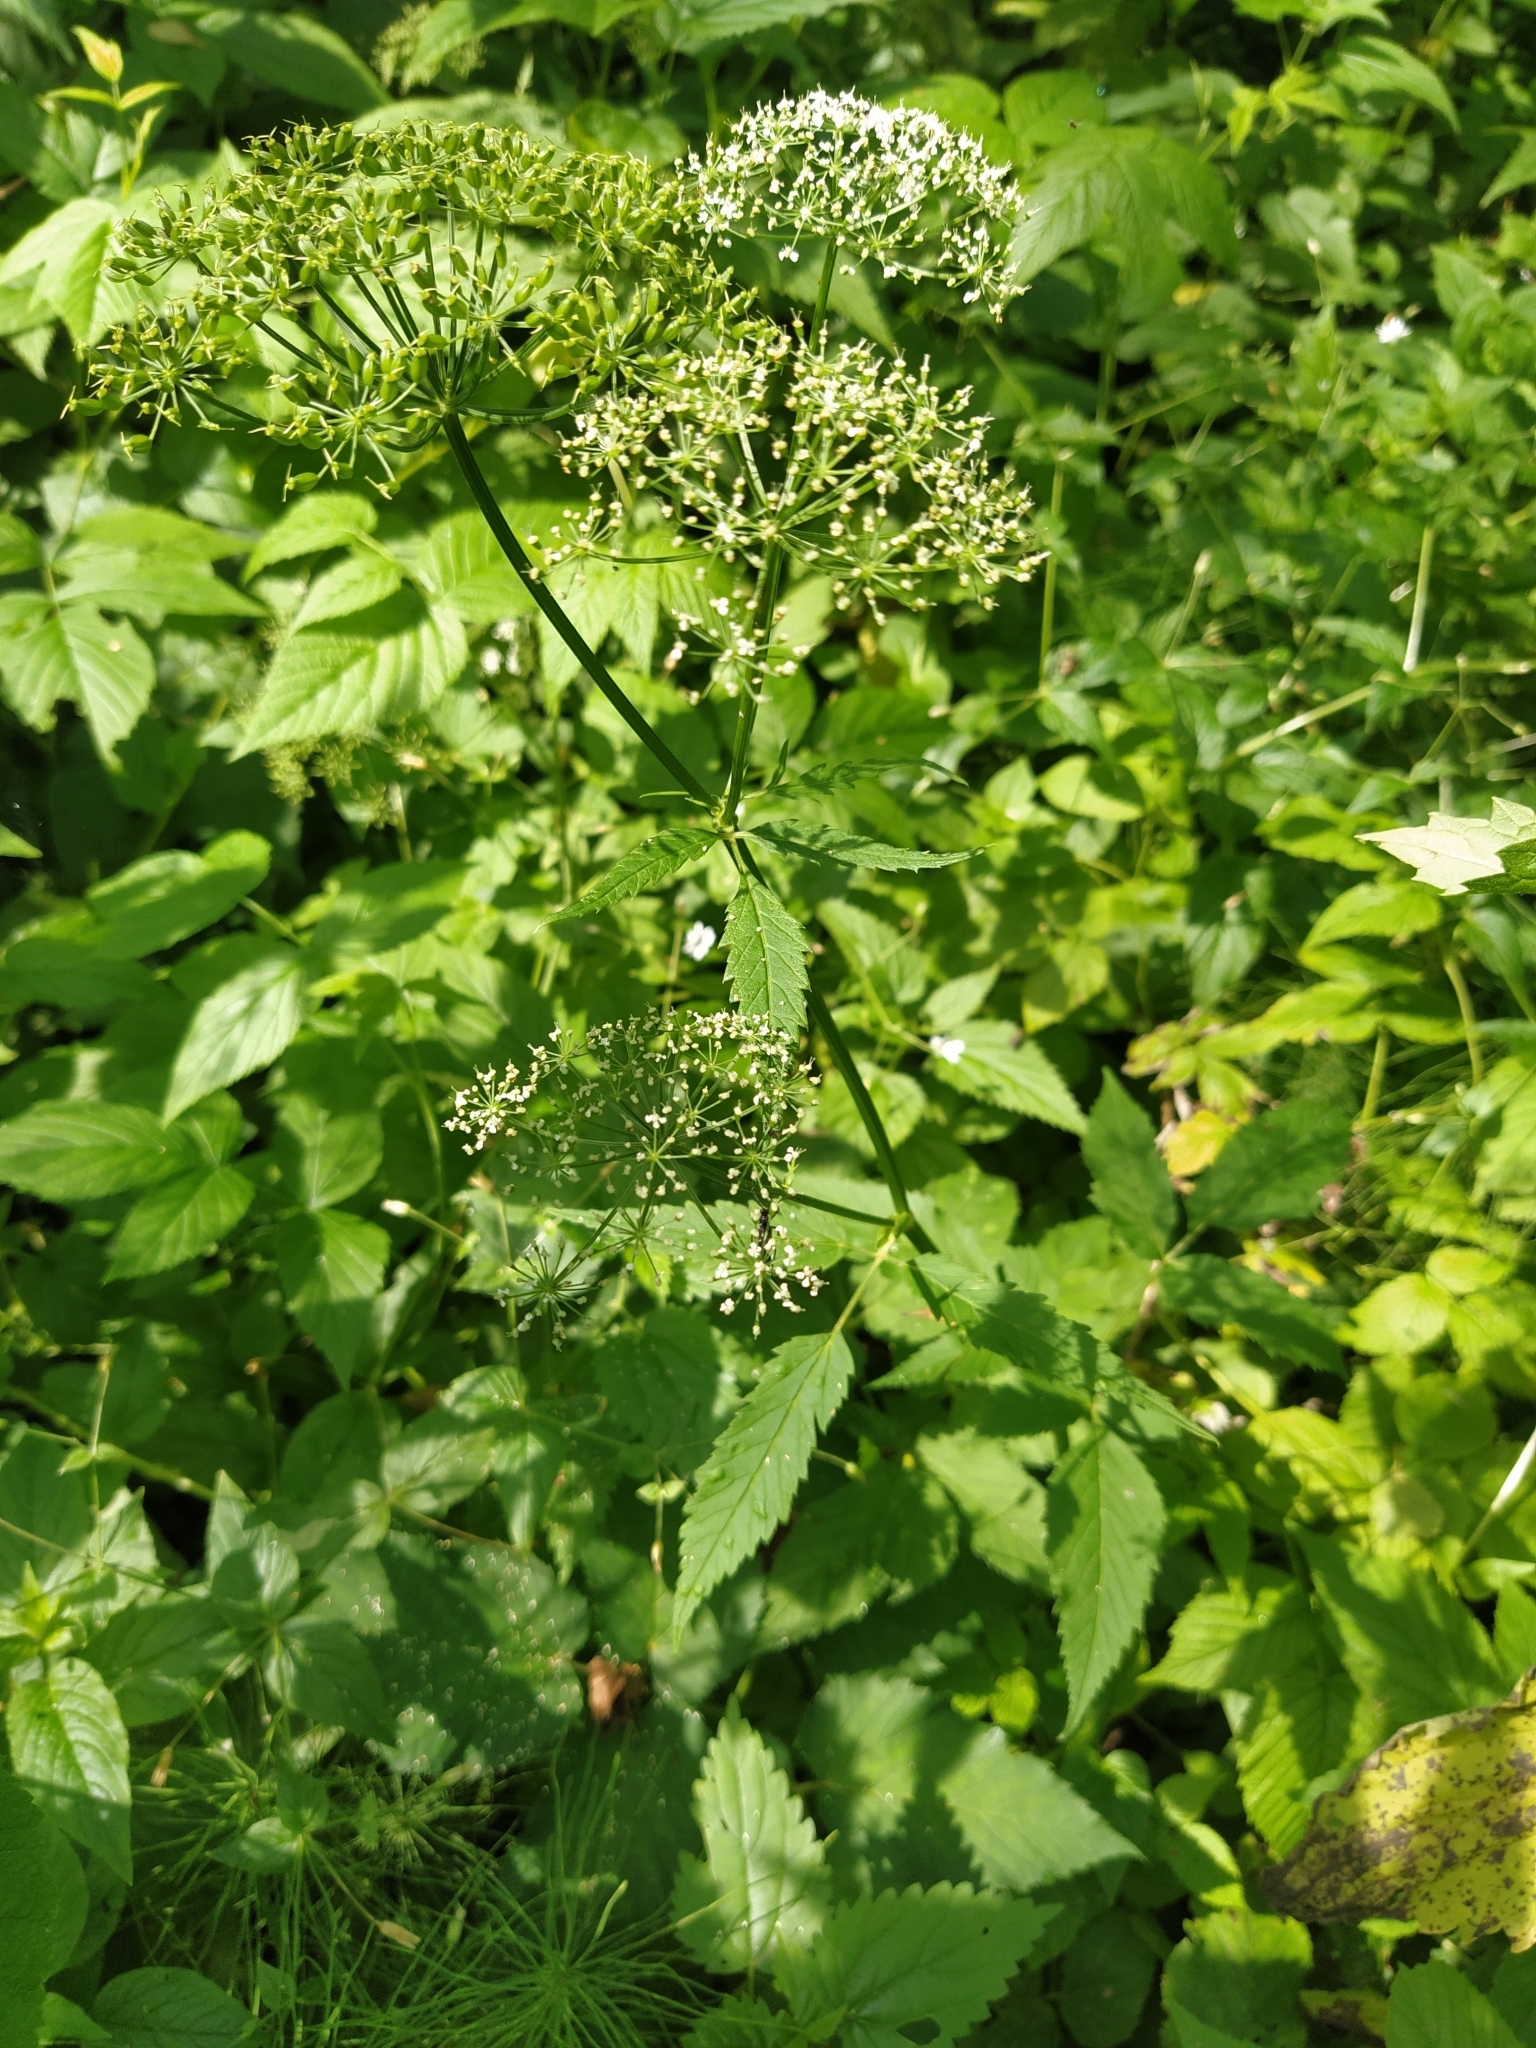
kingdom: Plantae
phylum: Tracheophyta
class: Magnoliopsida
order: Apiales
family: Apiaceae
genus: Aegopodium
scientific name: Aegopodium podagraria
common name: Ground-elder
